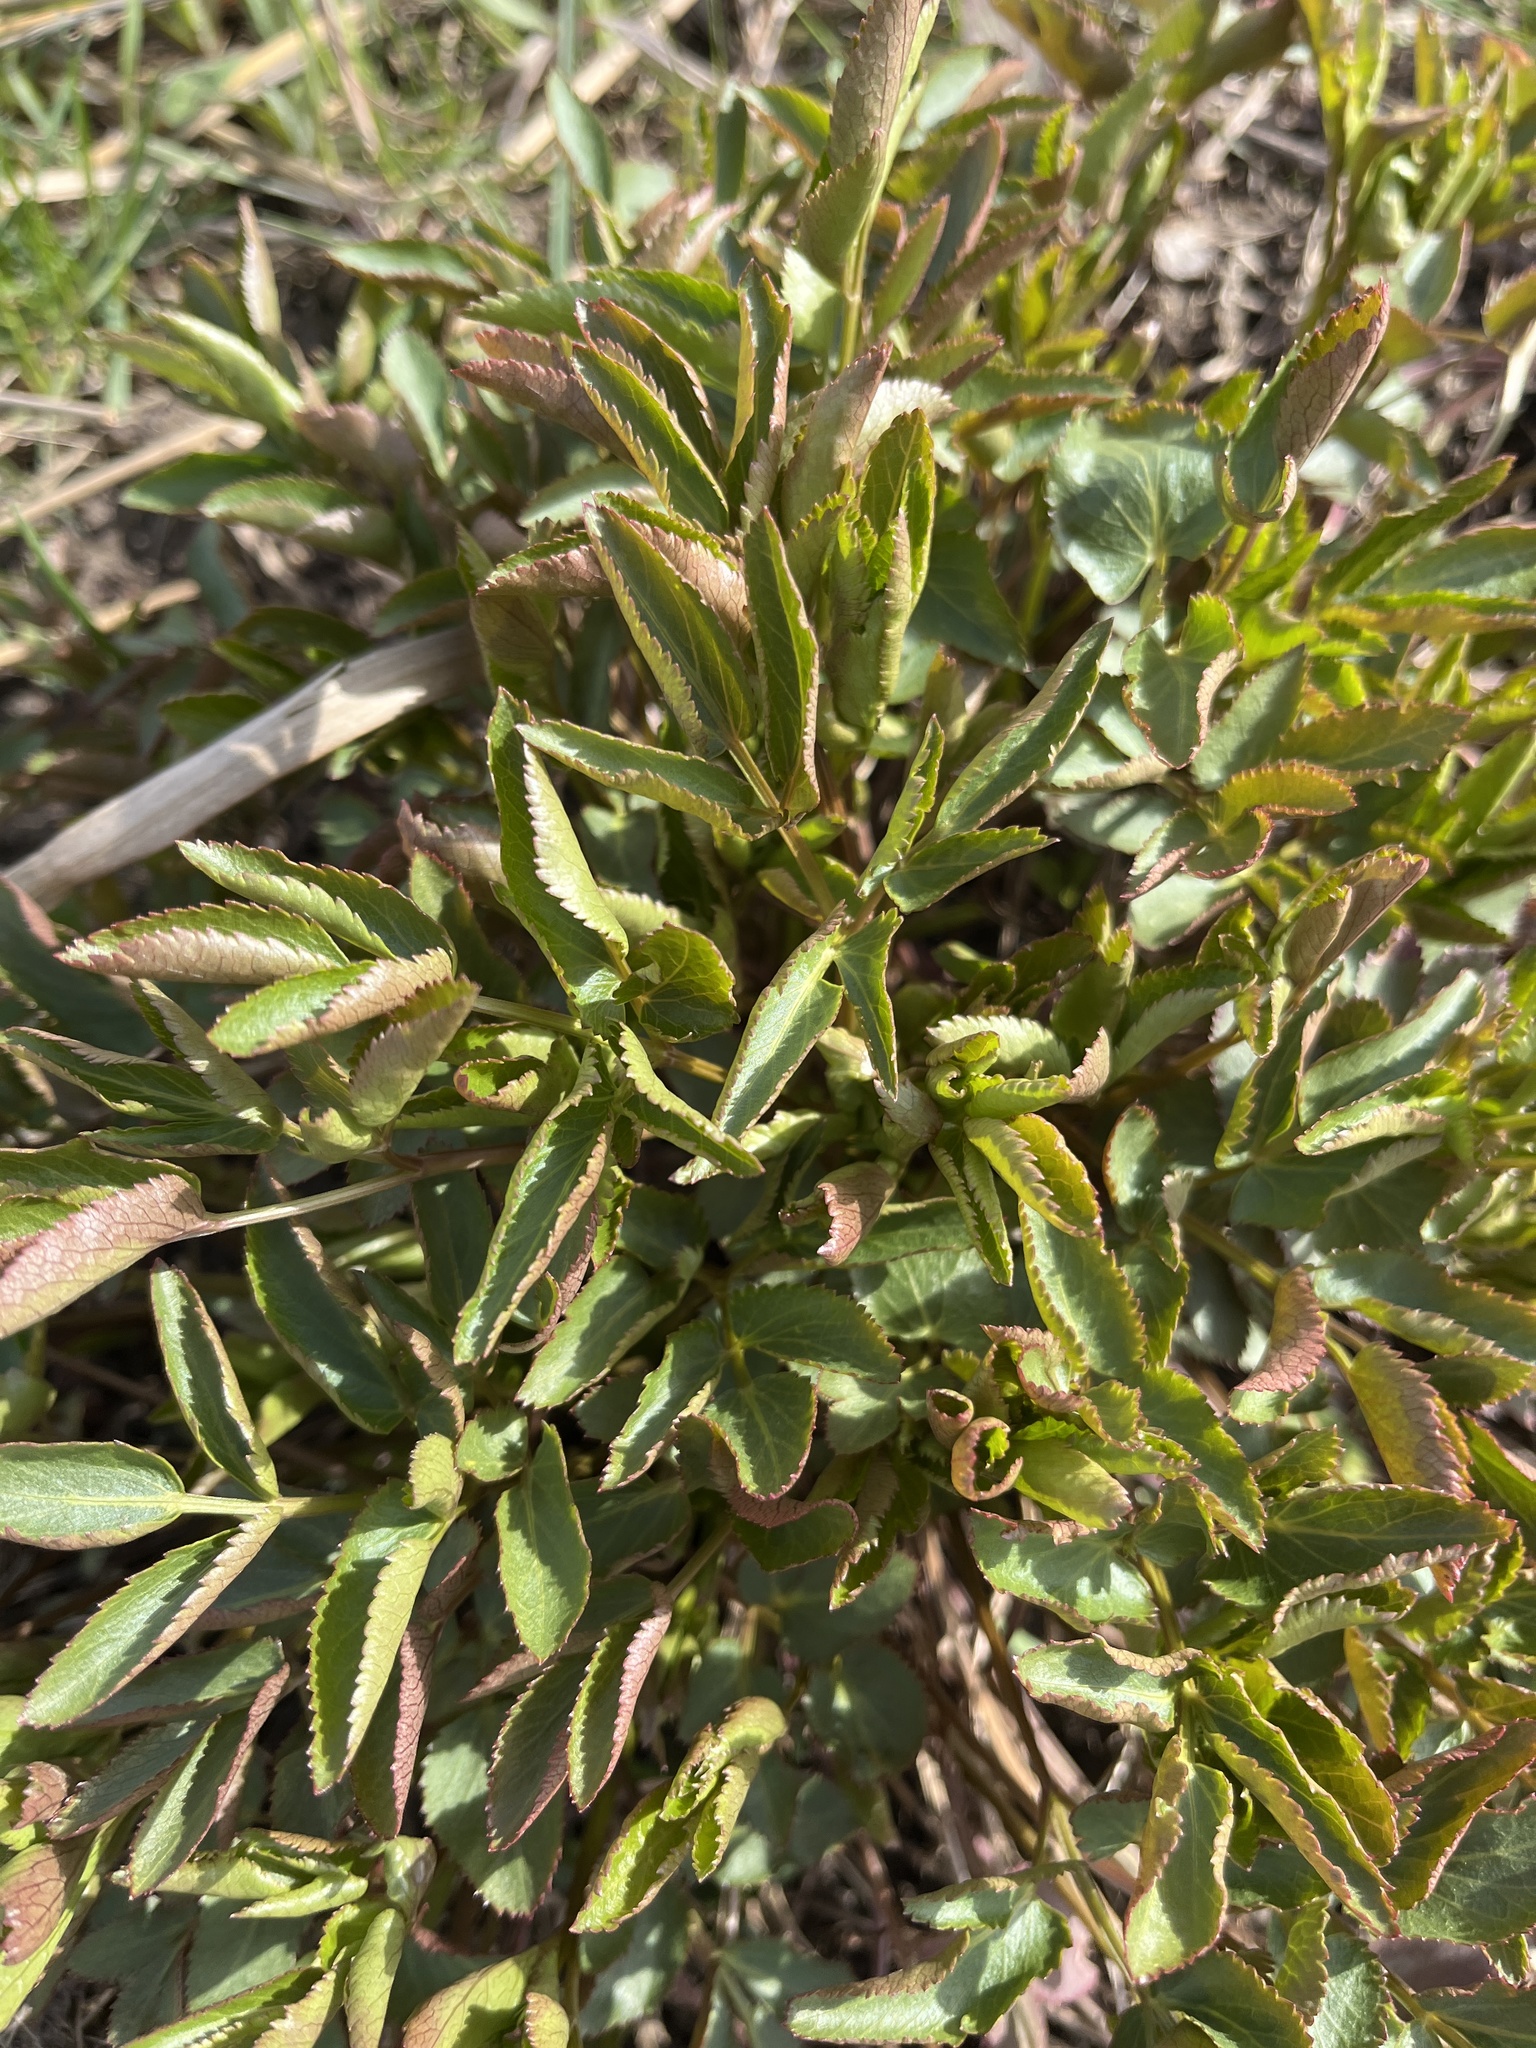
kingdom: Plantae
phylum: Tracheophyta
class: Magnoliopsida
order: Apiales
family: Apiaceae
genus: Zizia
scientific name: Zizia aurea
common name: Golden alexanders
